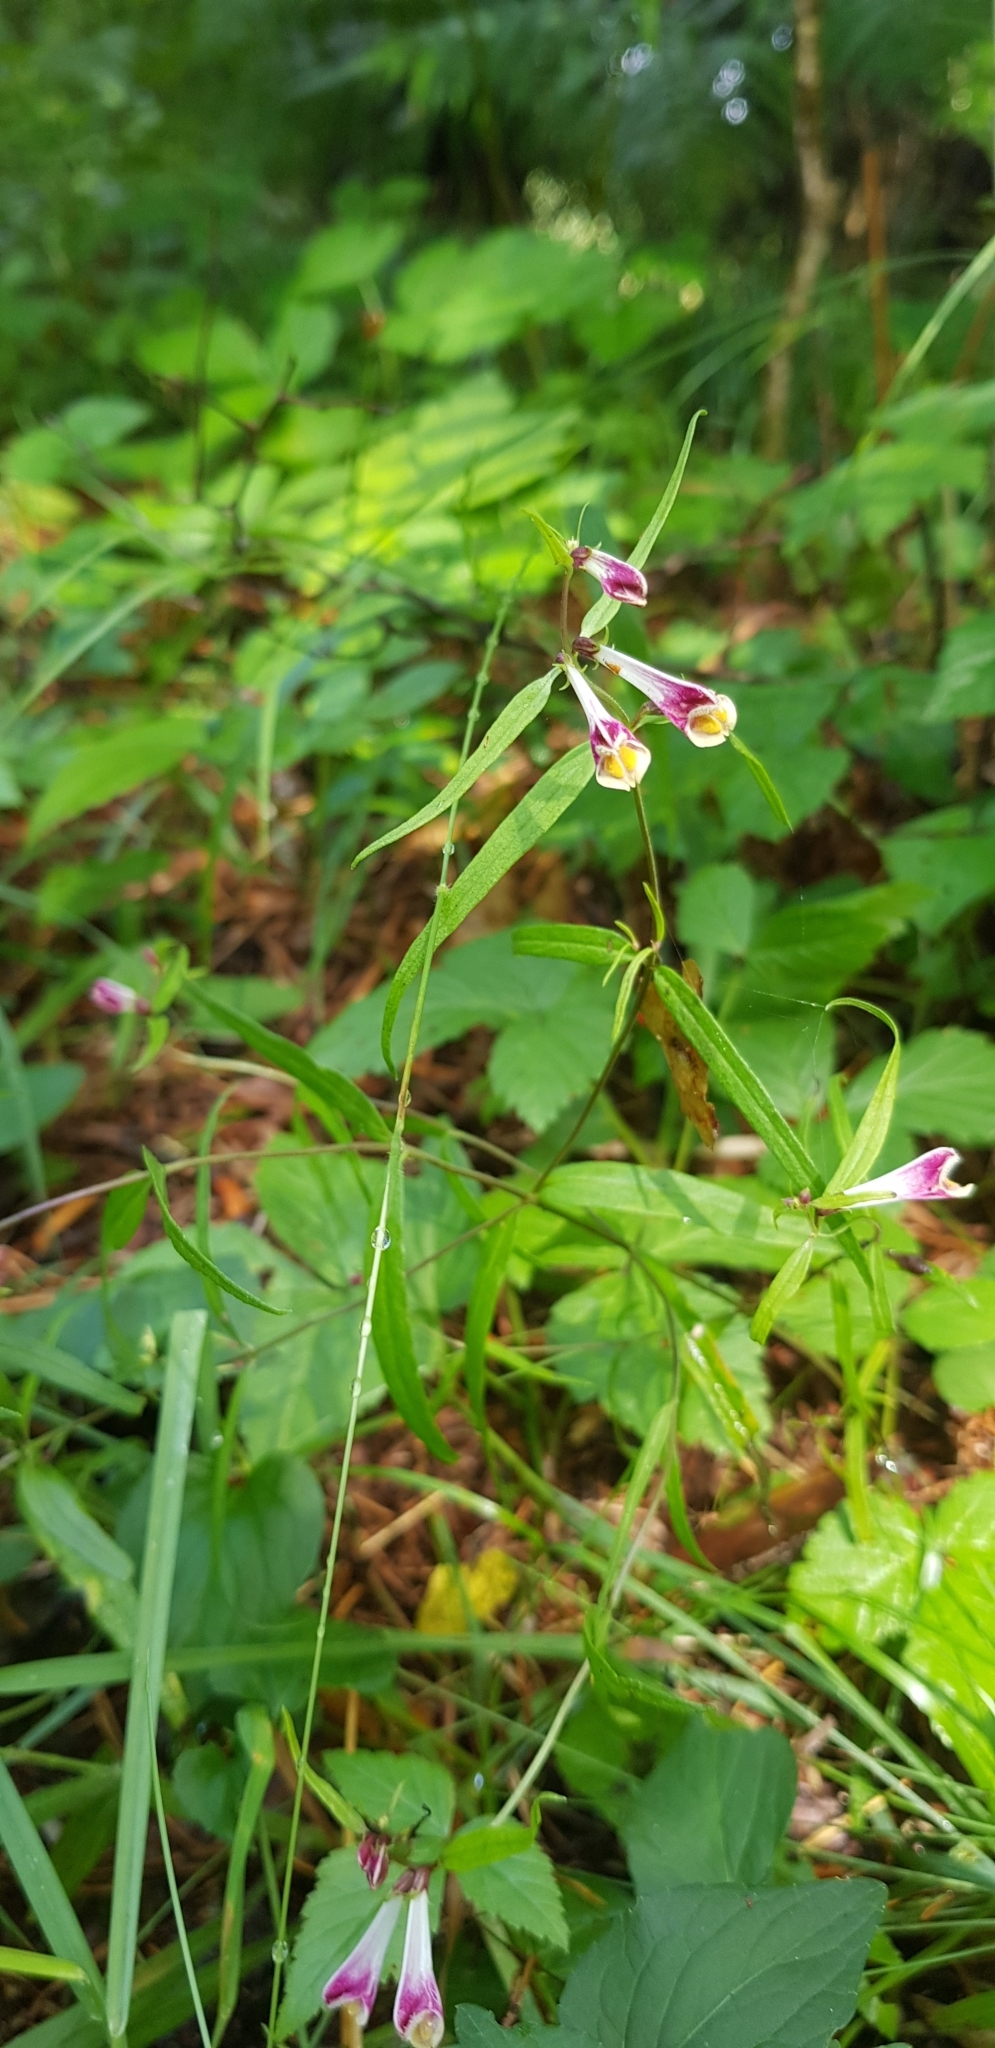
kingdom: Plantae
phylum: Tracheophyta
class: Magnoliopsida
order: Lamiales
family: Orobanchaceae
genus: Melampyrum
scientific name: Melampyrum pratense
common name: Common cow-wheat
